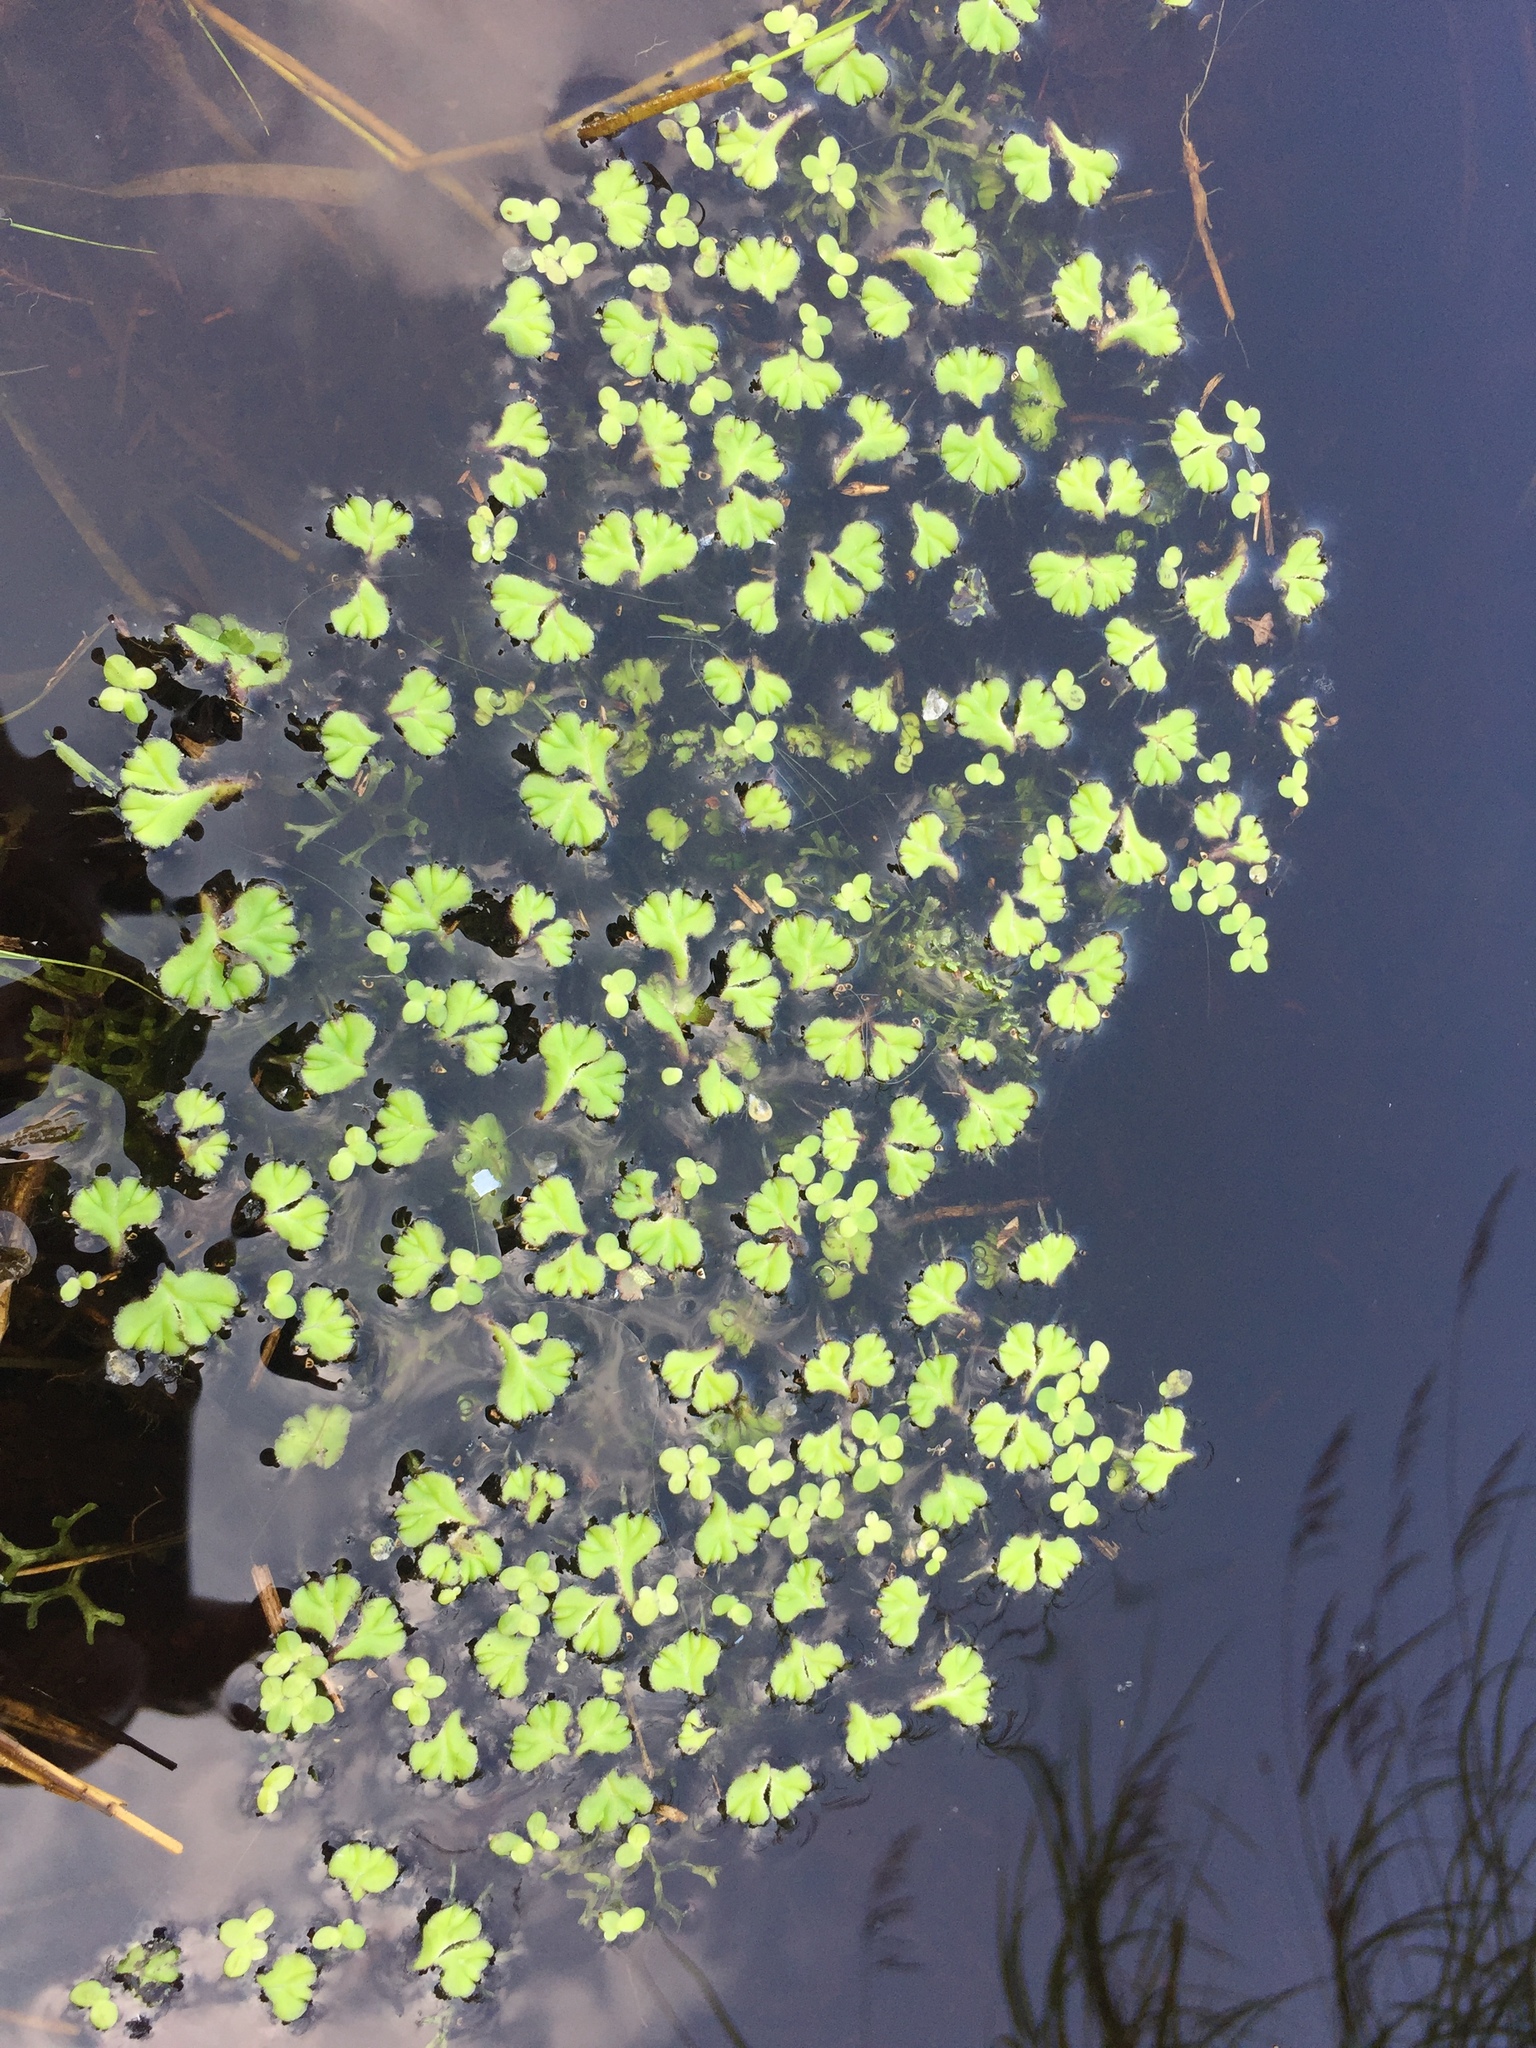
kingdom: Plantae
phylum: Marchantiophyta
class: Marchantiopsida
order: Marchantiales
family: Ricciaceae
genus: Ricciocarpos
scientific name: Ricciocarpos natans
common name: Purple-fringed liverwort
